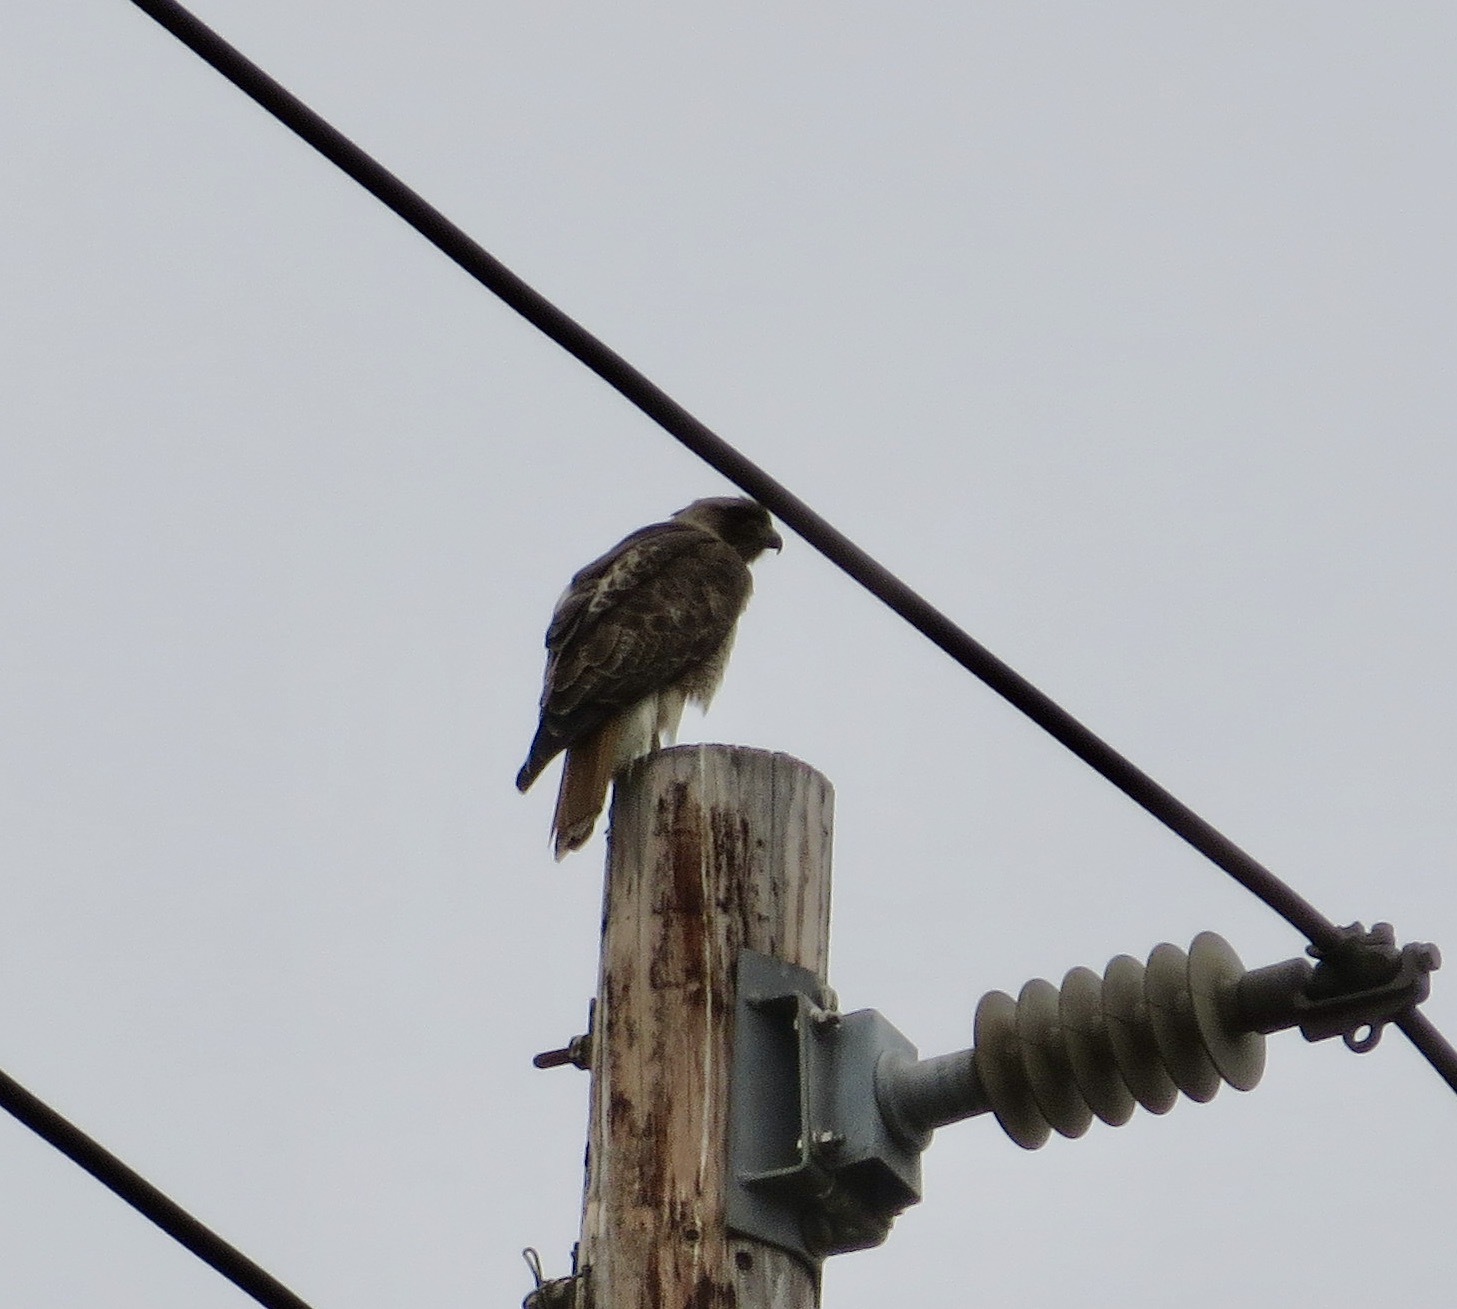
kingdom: Animalia
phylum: Chordata
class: Aves
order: Accipitriformes
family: Accipitridae
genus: Buteo
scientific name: Buteo jamaicensis
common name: Red-tailed hawk
